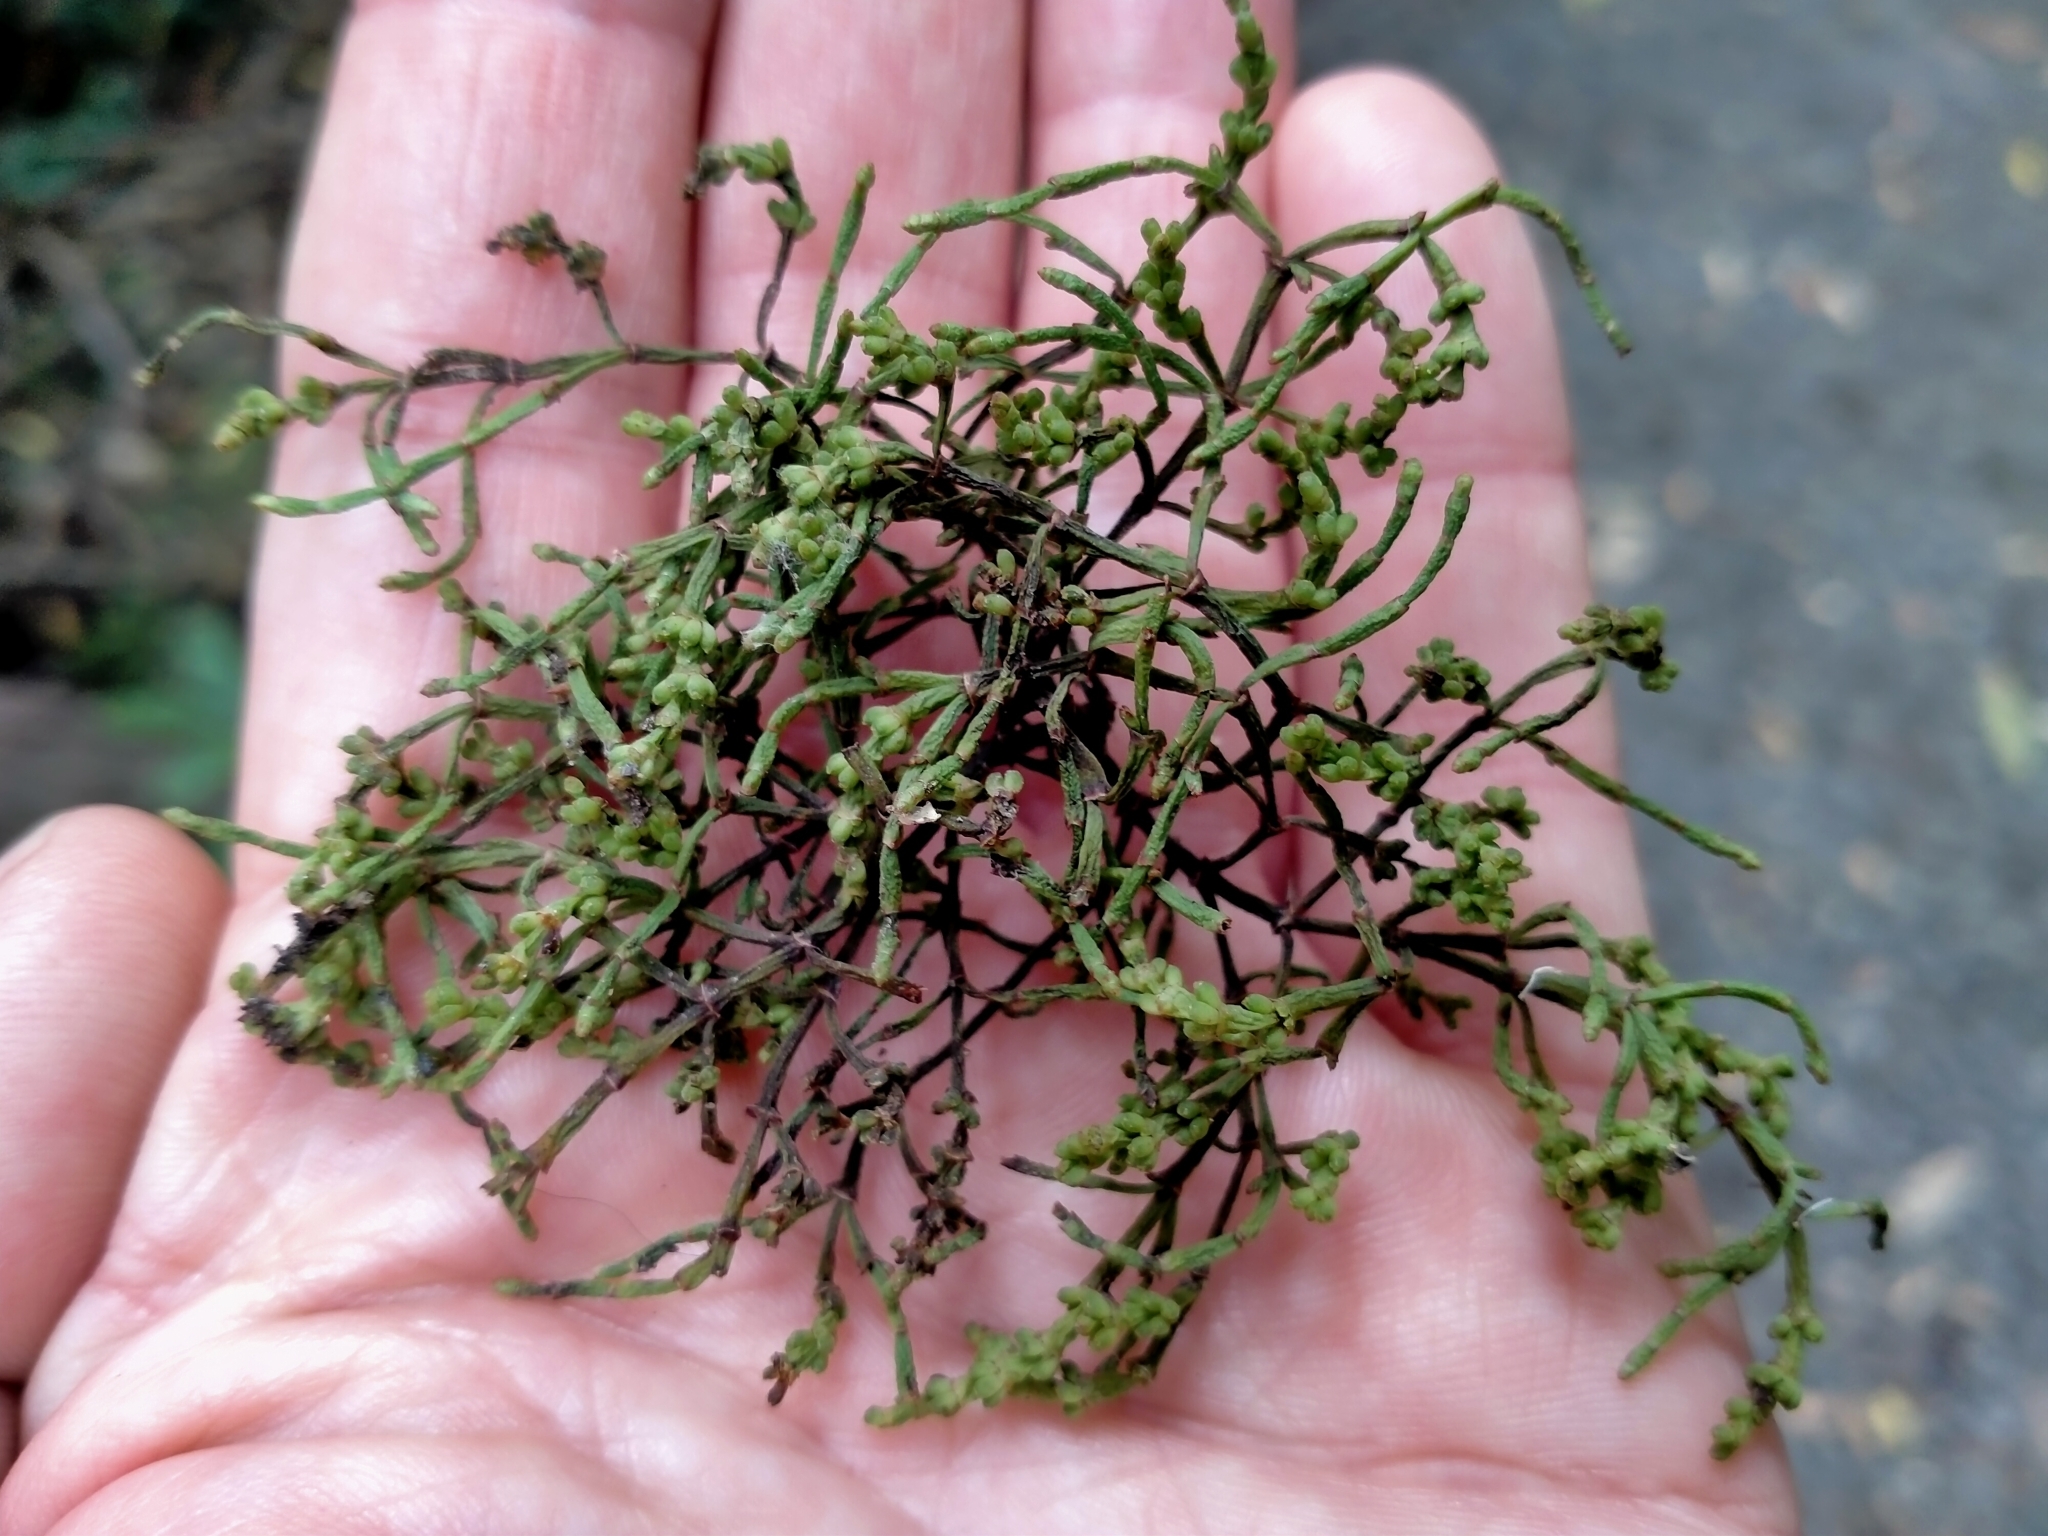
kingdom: Plantae
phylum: Tracheophyta
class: Magnoliopsida
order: Santalales
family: Viscaceae
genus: Korthalsella
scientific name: Korthalsella salicornioides
